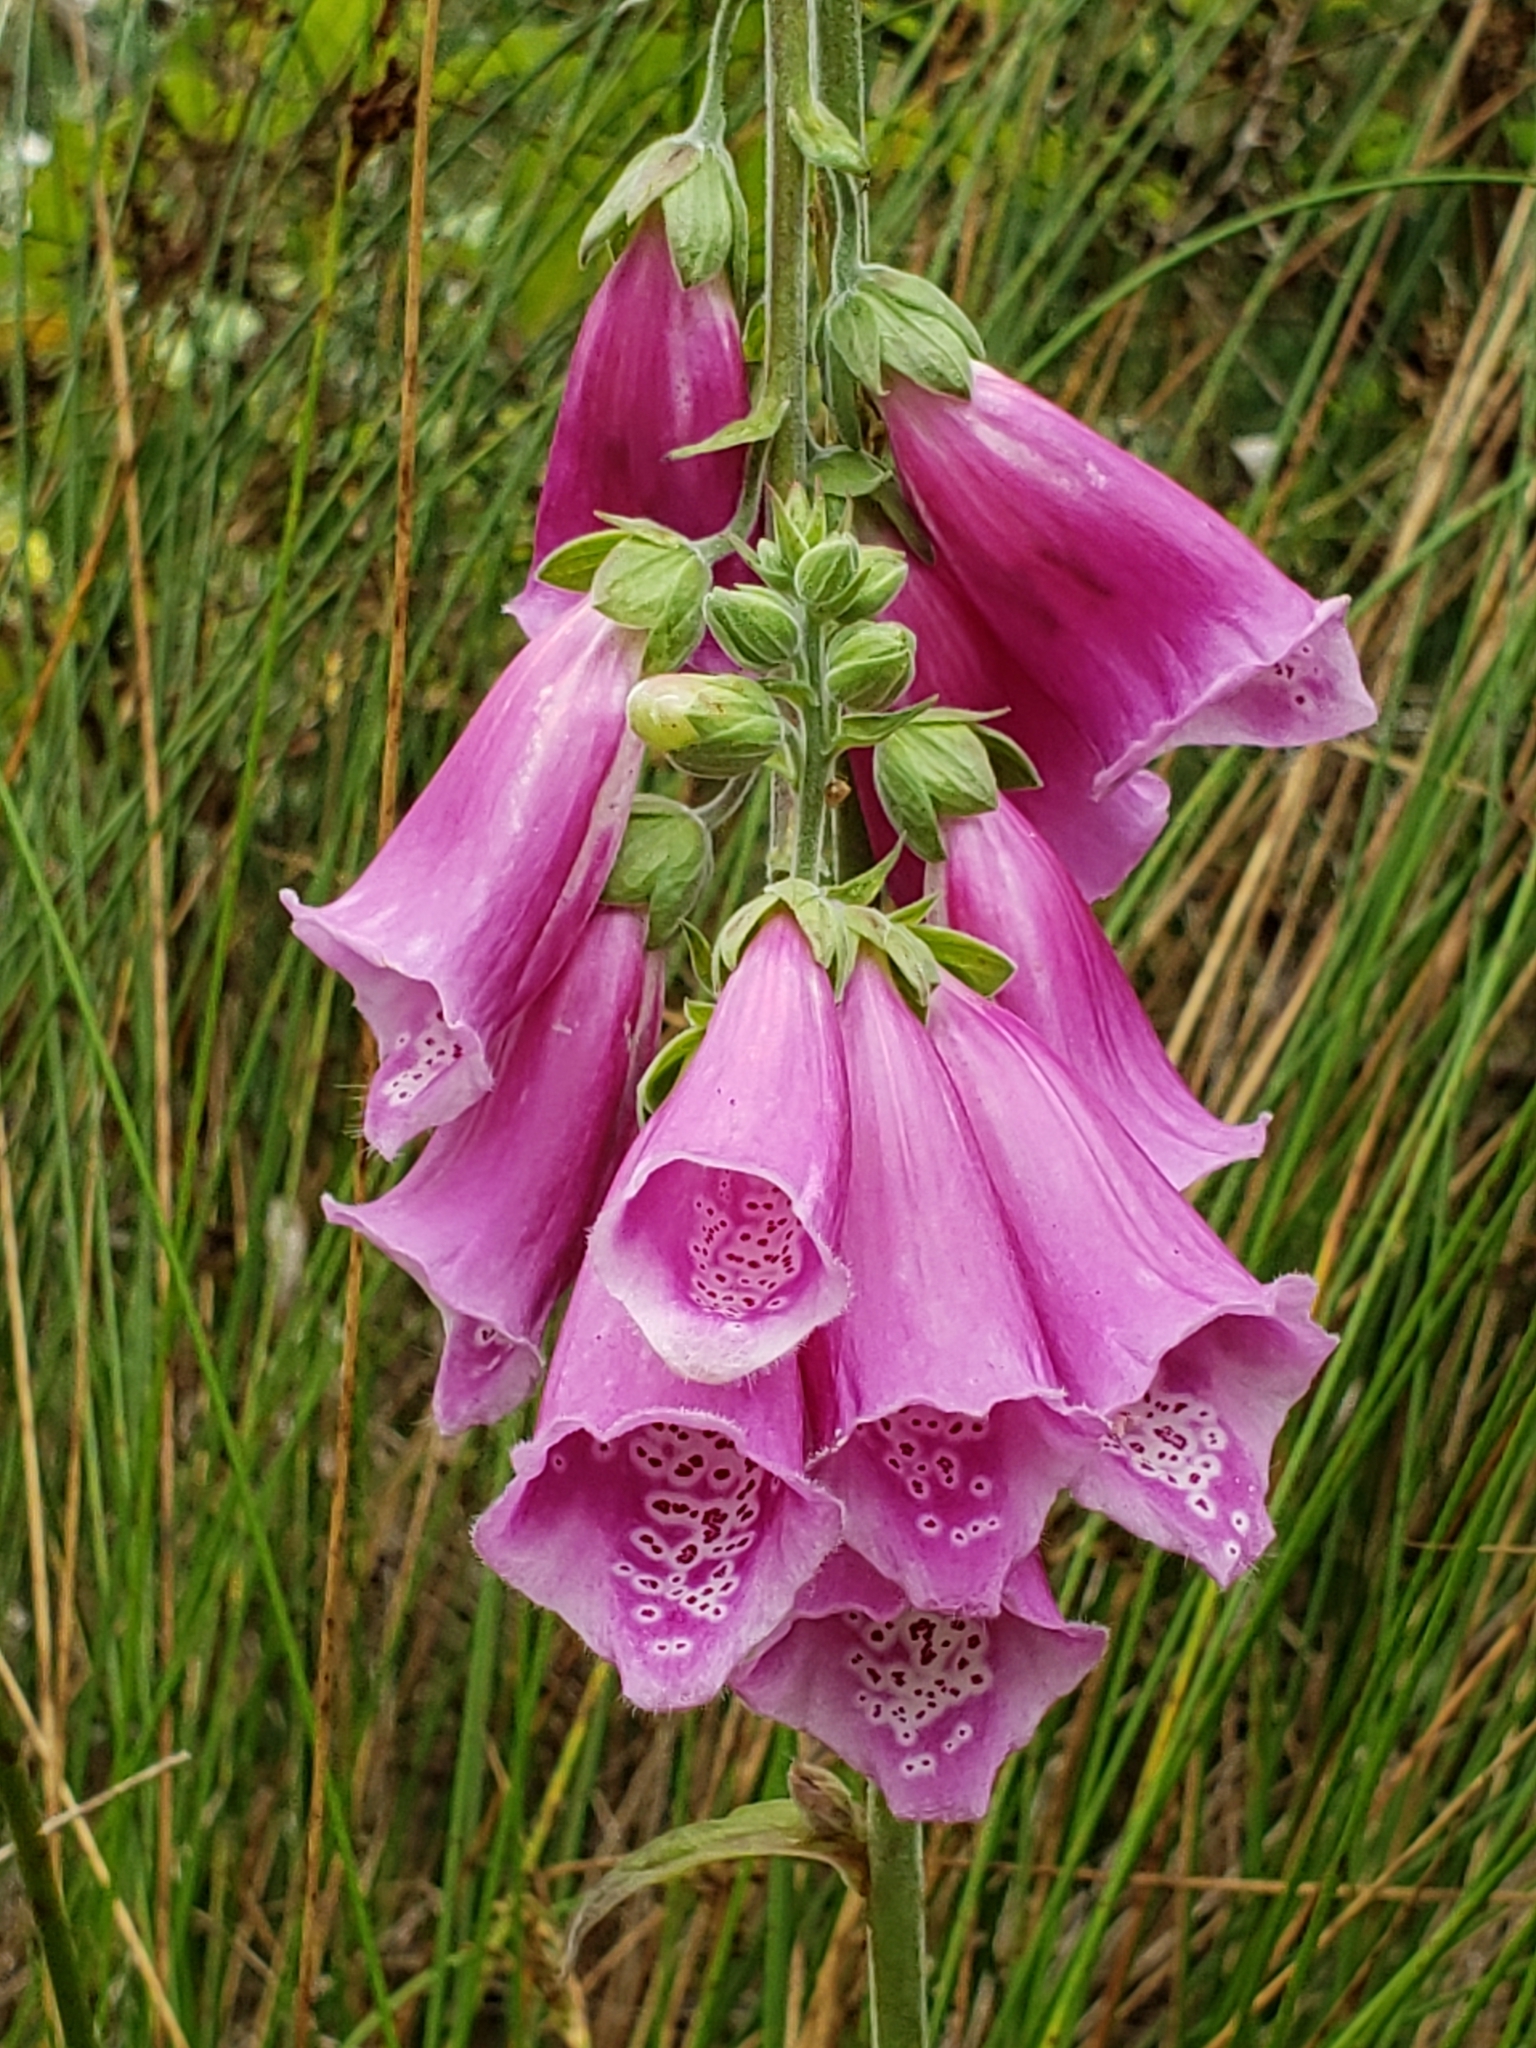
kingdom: Plantae
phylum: Tracheophyta
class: Magnoliopsida
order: Lamiales
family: Plantaginaceae
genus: Digitalis
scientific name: Digitalis purpurea
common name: Foxglove
